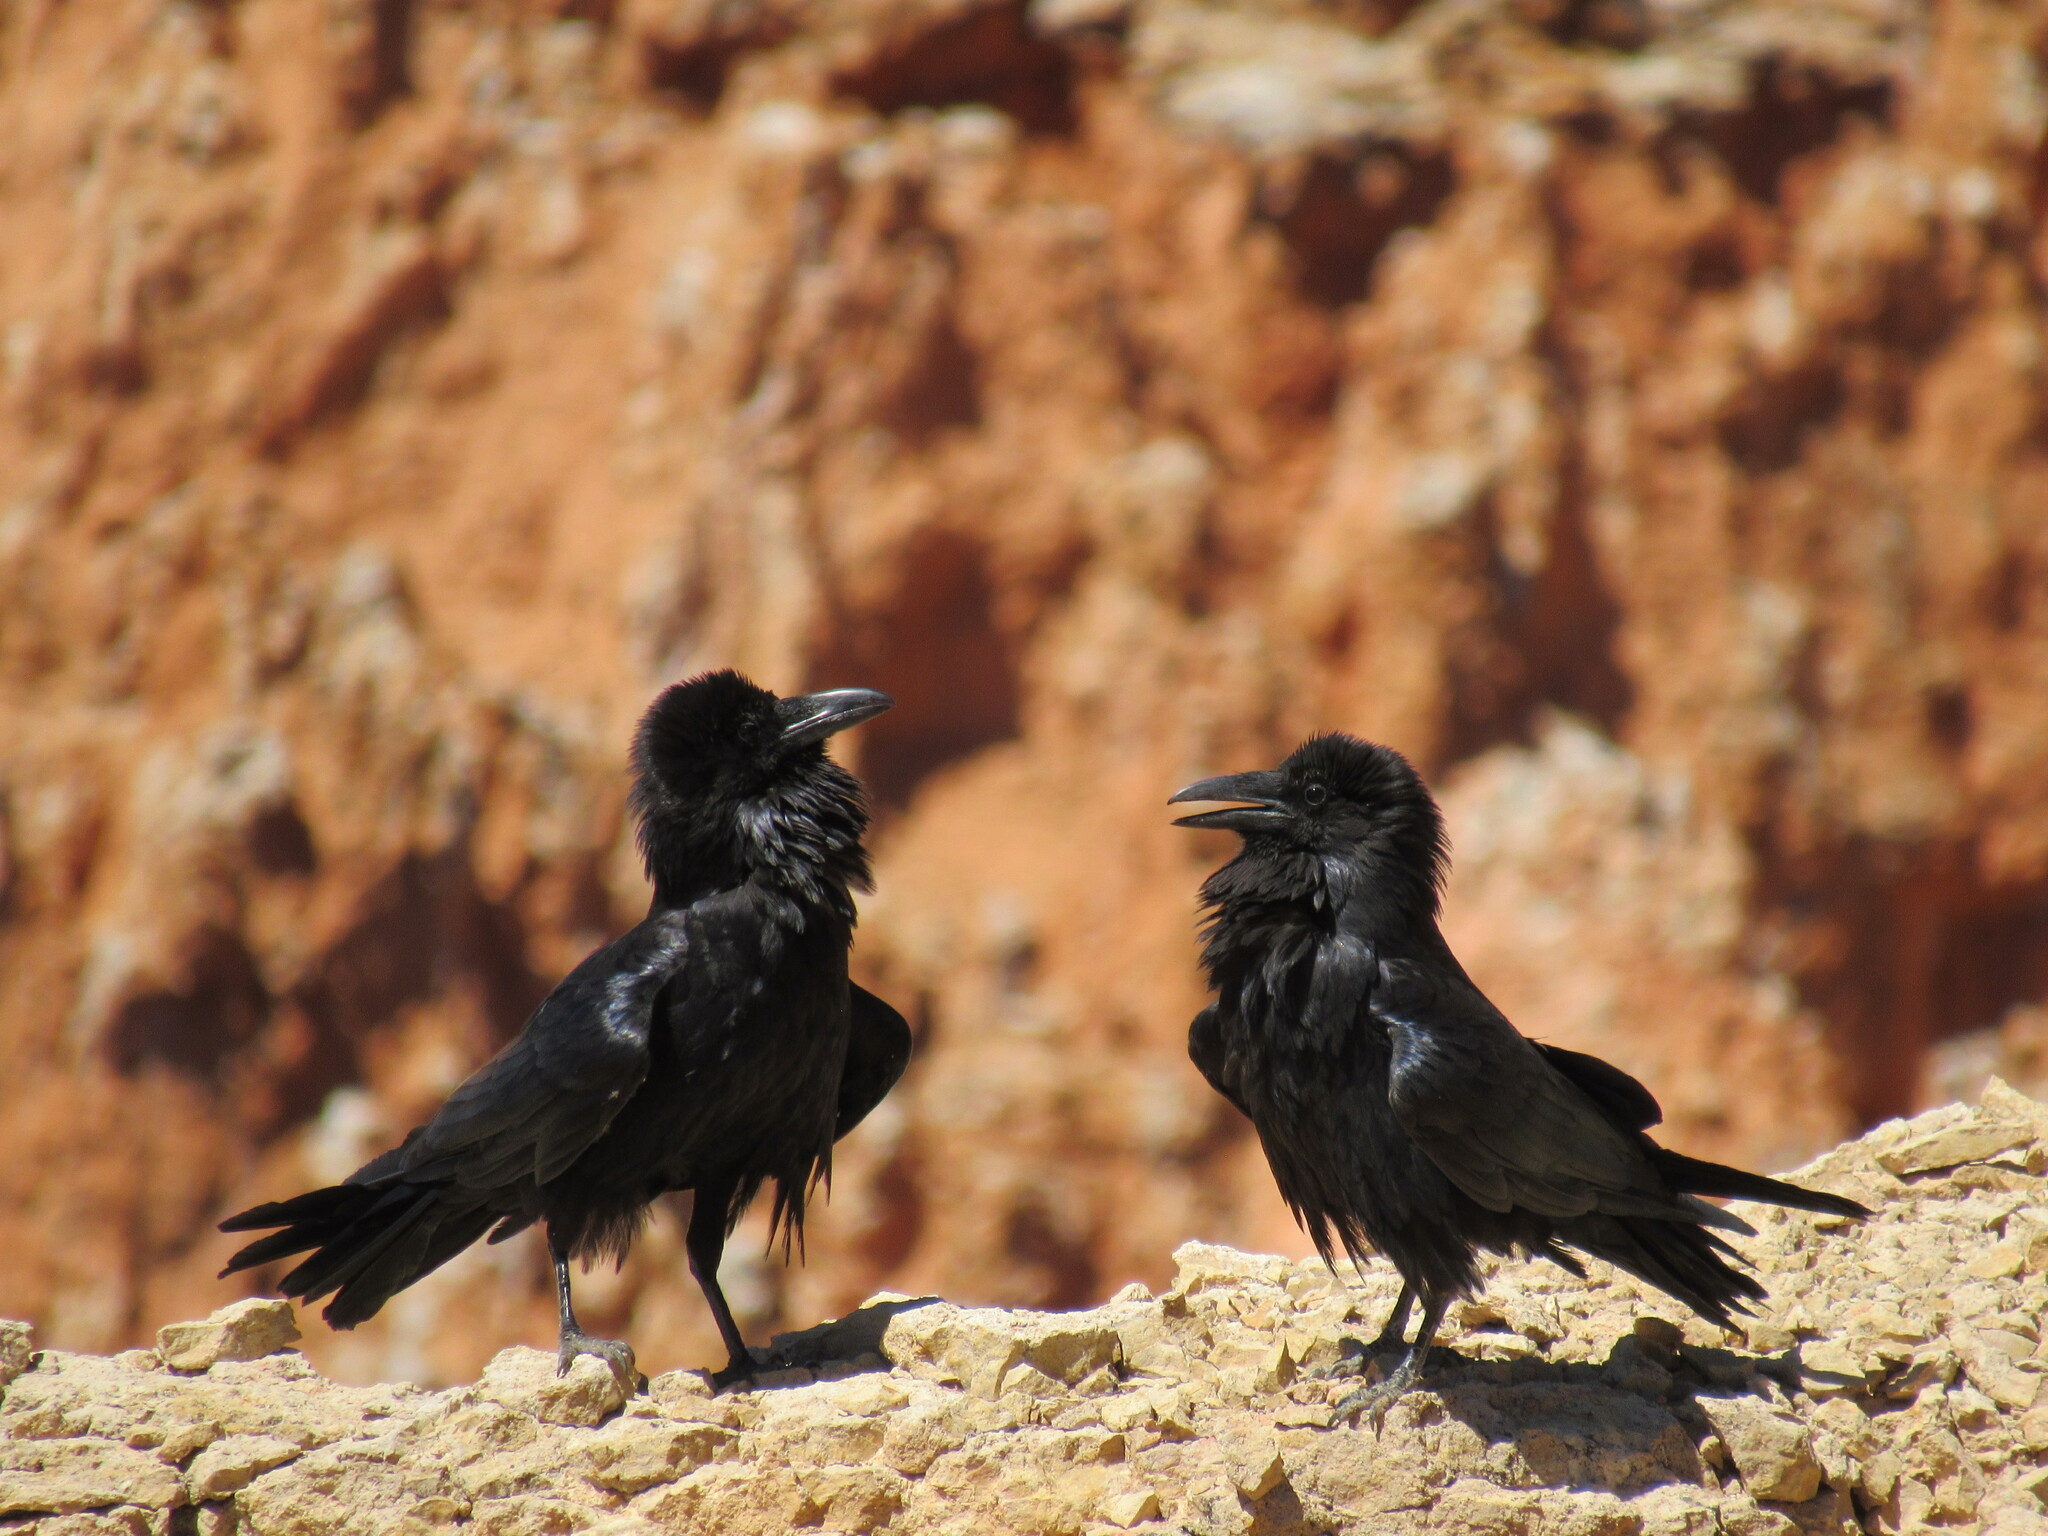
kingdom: Animalia
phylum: Chordata
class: Aves
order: Passeriformes
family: Corvidae
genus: Corvus
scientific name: Corvus corax
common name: Common raven
